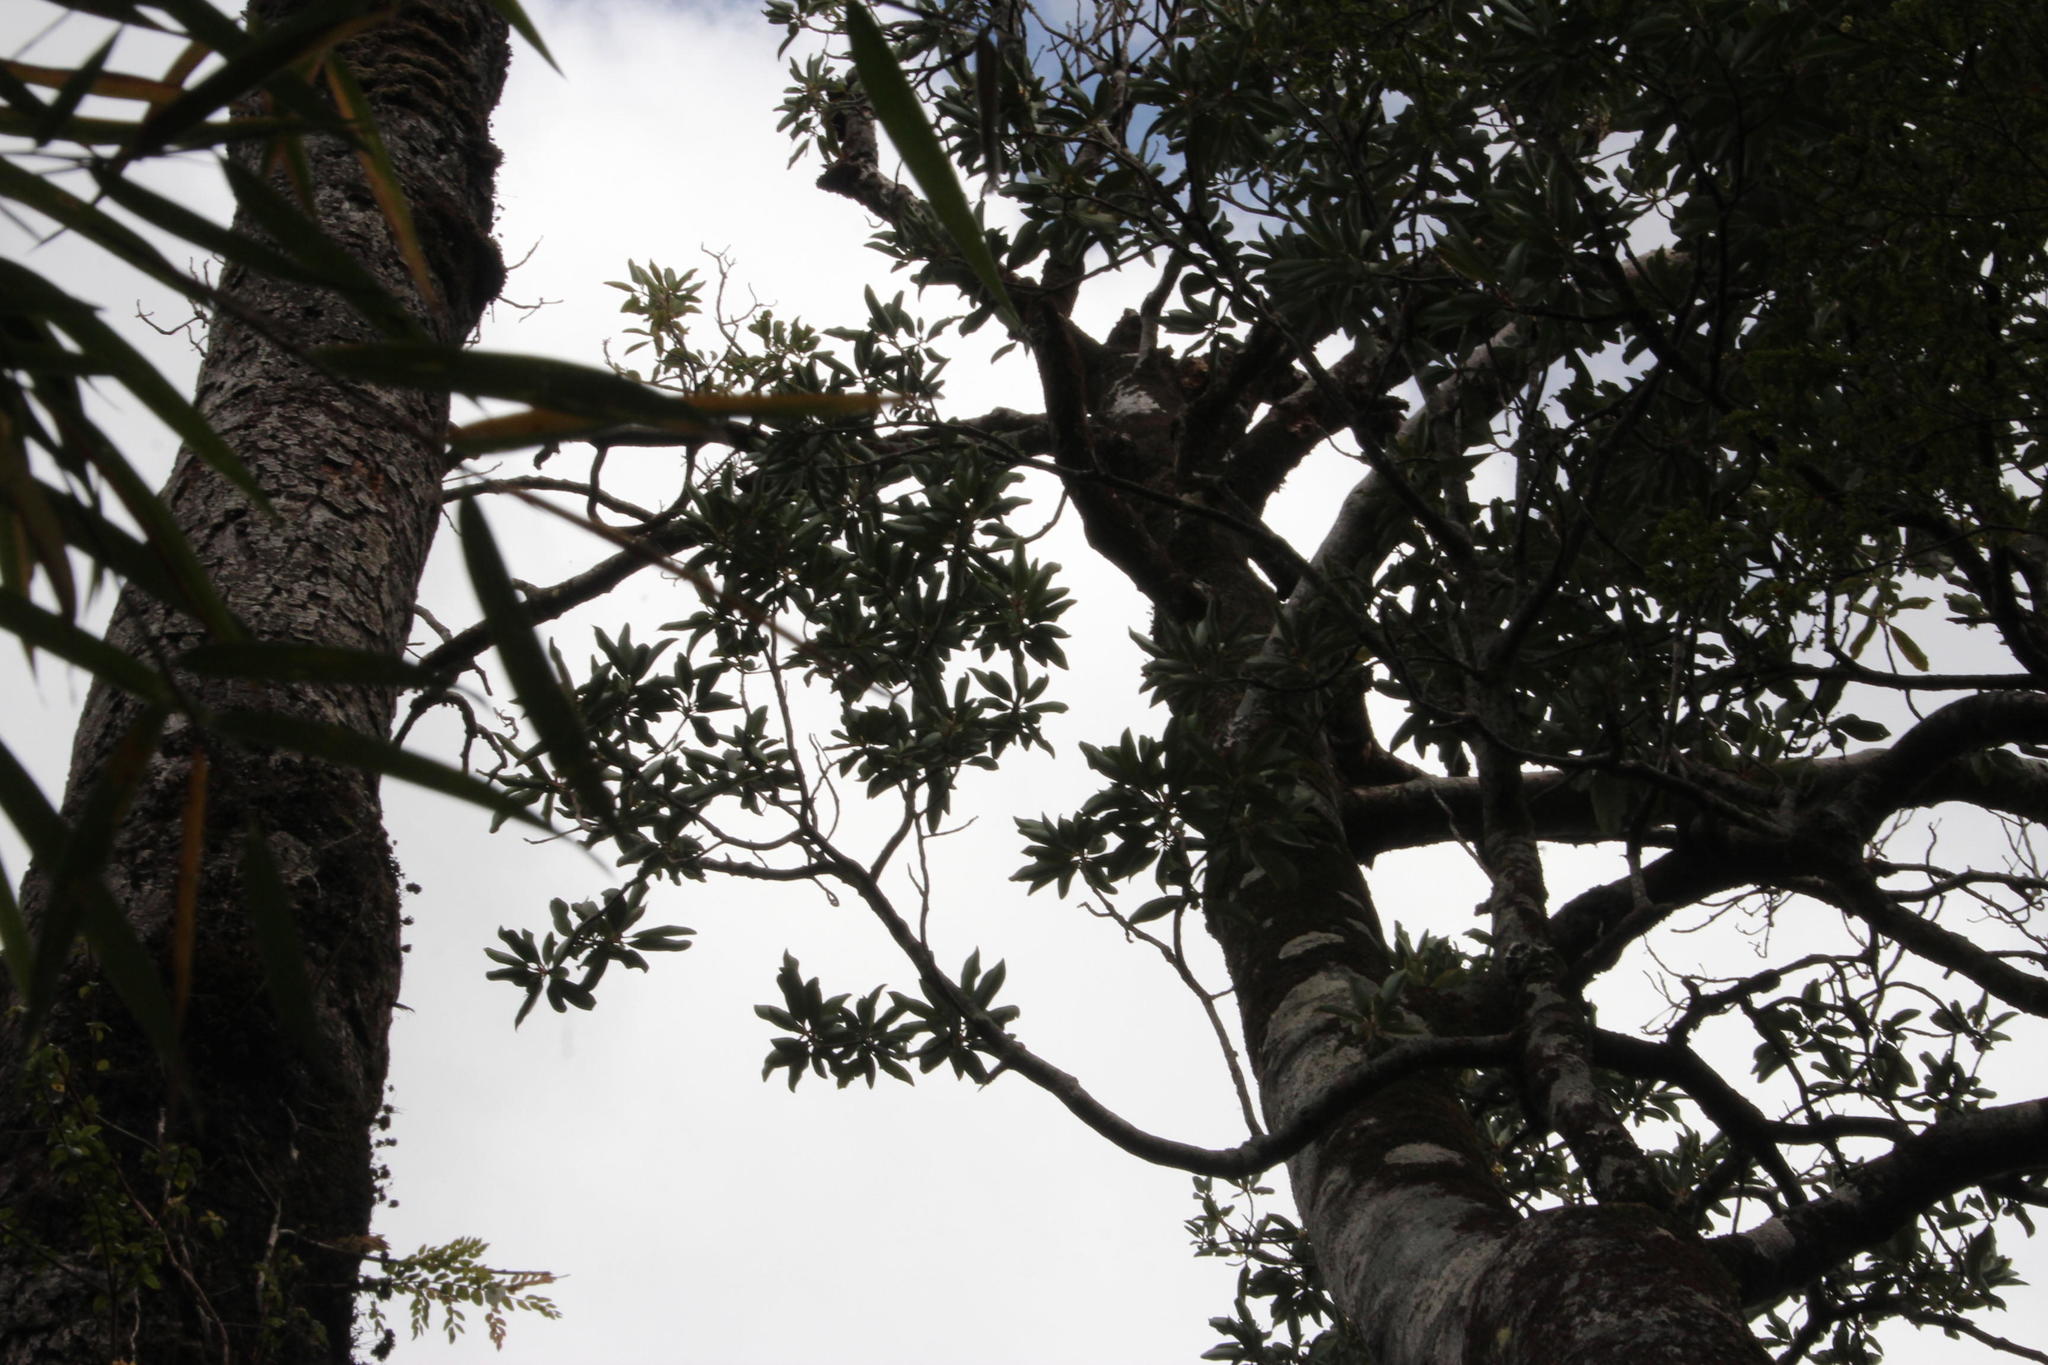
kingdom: Plantae
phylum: Tracheophyta
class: Magnoliopsida
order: Canellales
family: Winteraceae
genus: Drimys
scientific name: Drimys winteri
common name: Winter's-bark
